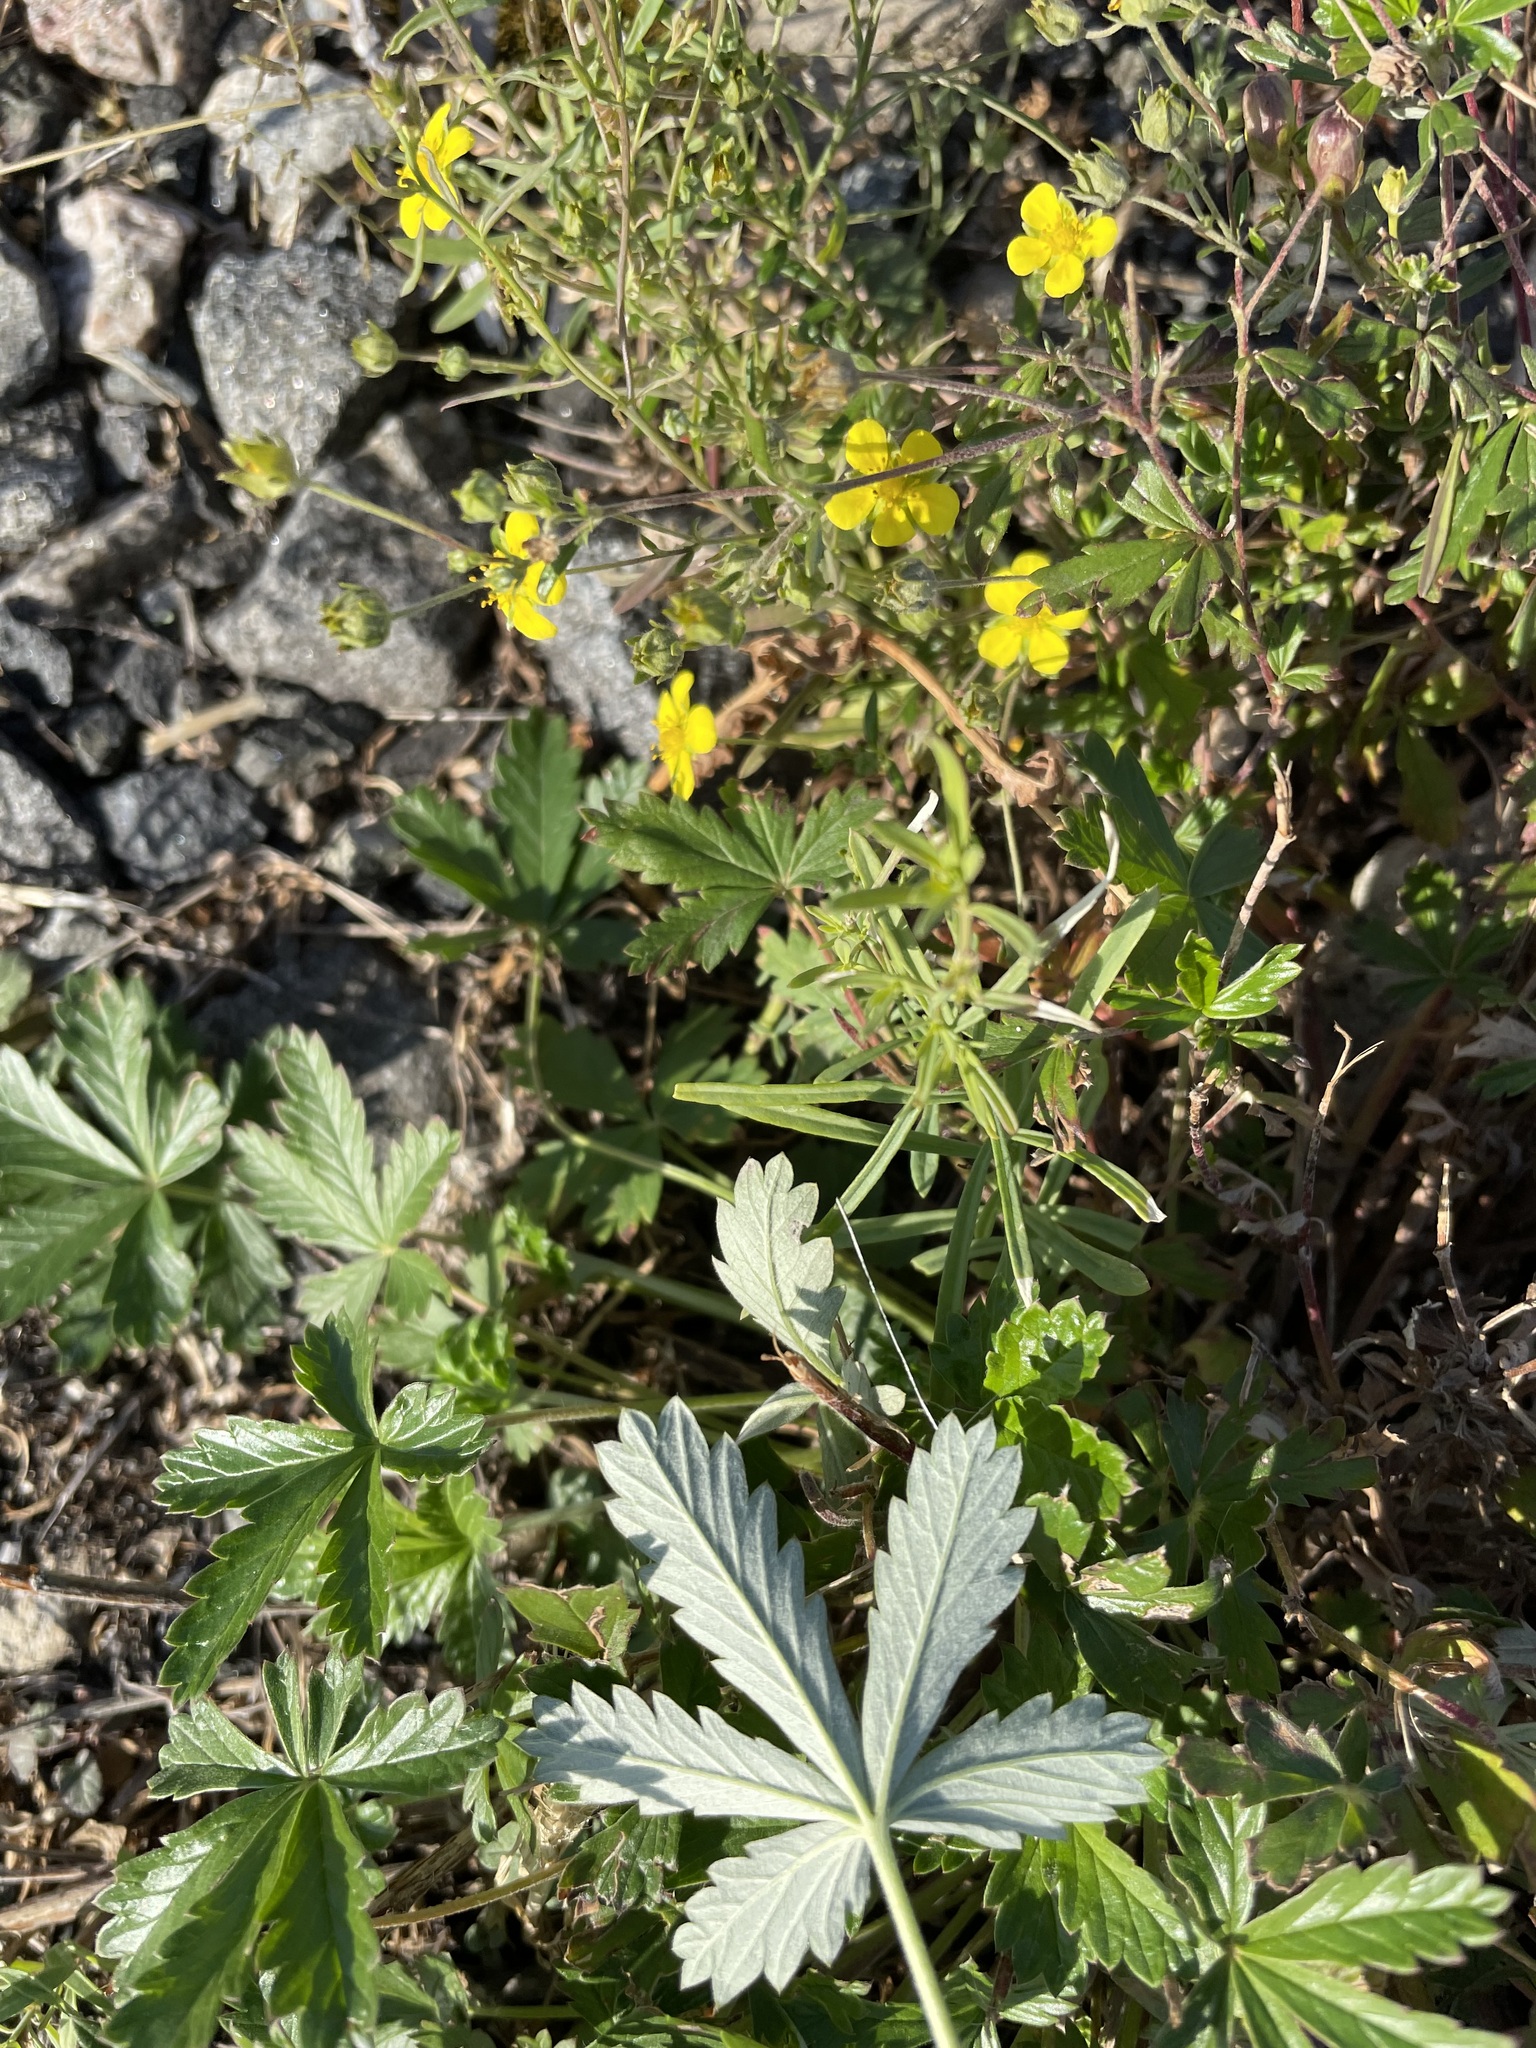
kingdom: Plantae
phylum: Tracheophyta
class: Magnoliopsida
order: Rosales
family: Rosaceae
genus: Potentilla
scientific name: Potentilla argentea
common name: Hoary cinquefoil
